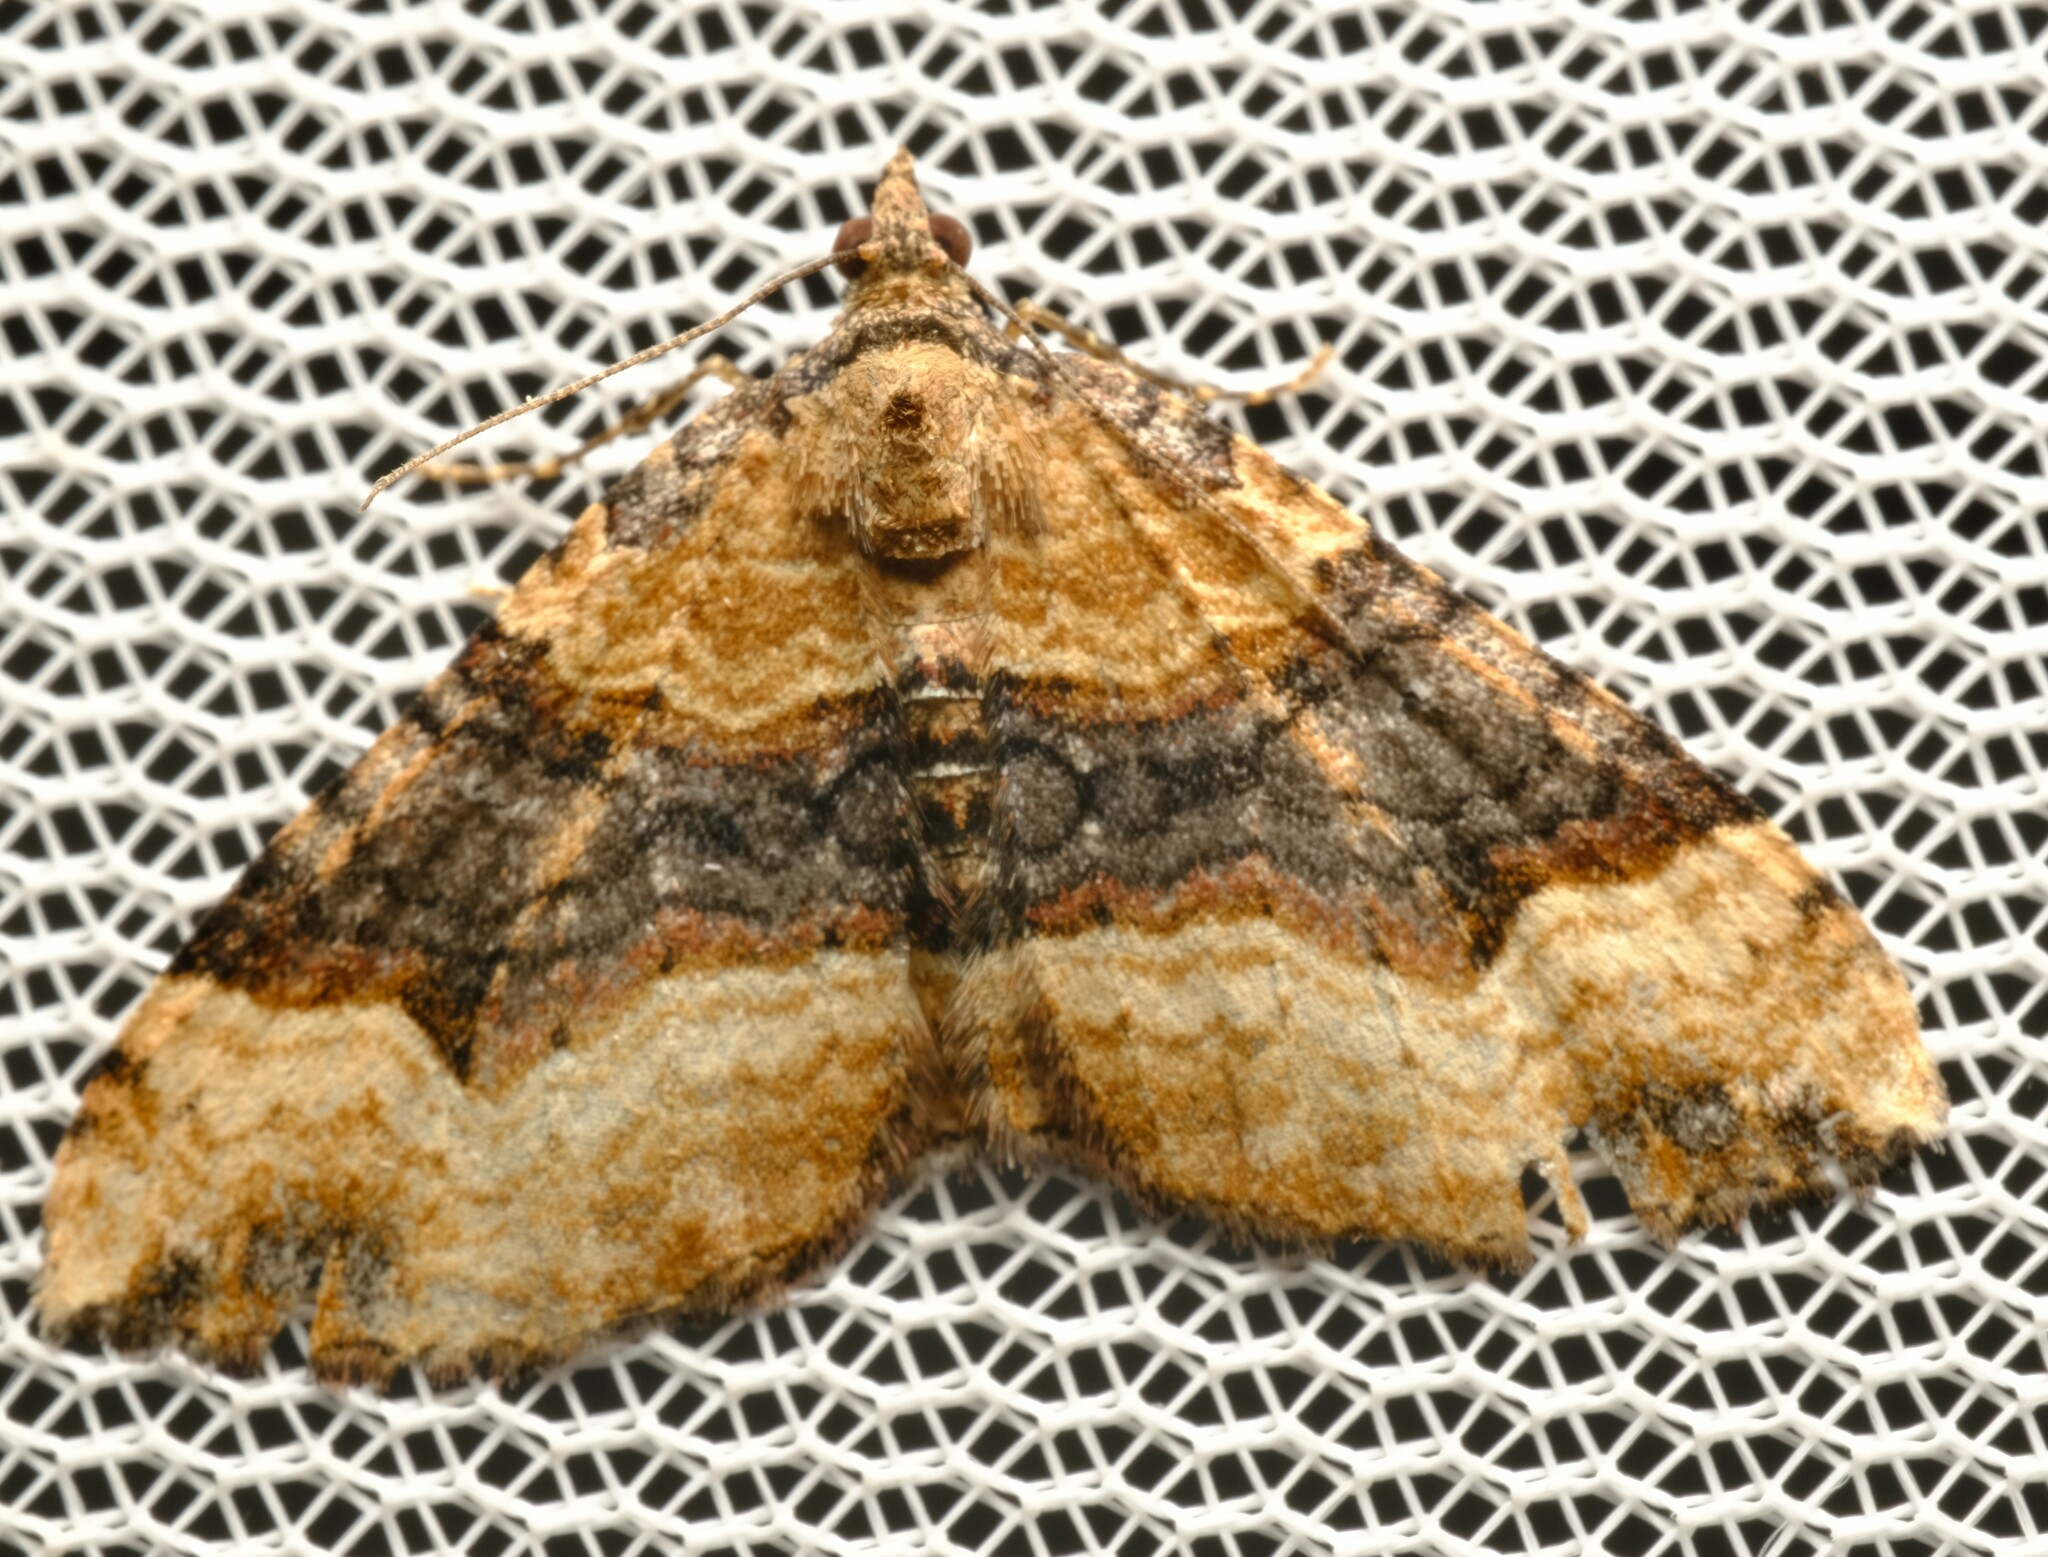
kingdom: Animalia
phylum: Arthropoda
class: Insecta
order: Lepidoptera
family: Geometridae
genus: Epyaxa
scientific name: Epyaxa subidaria
